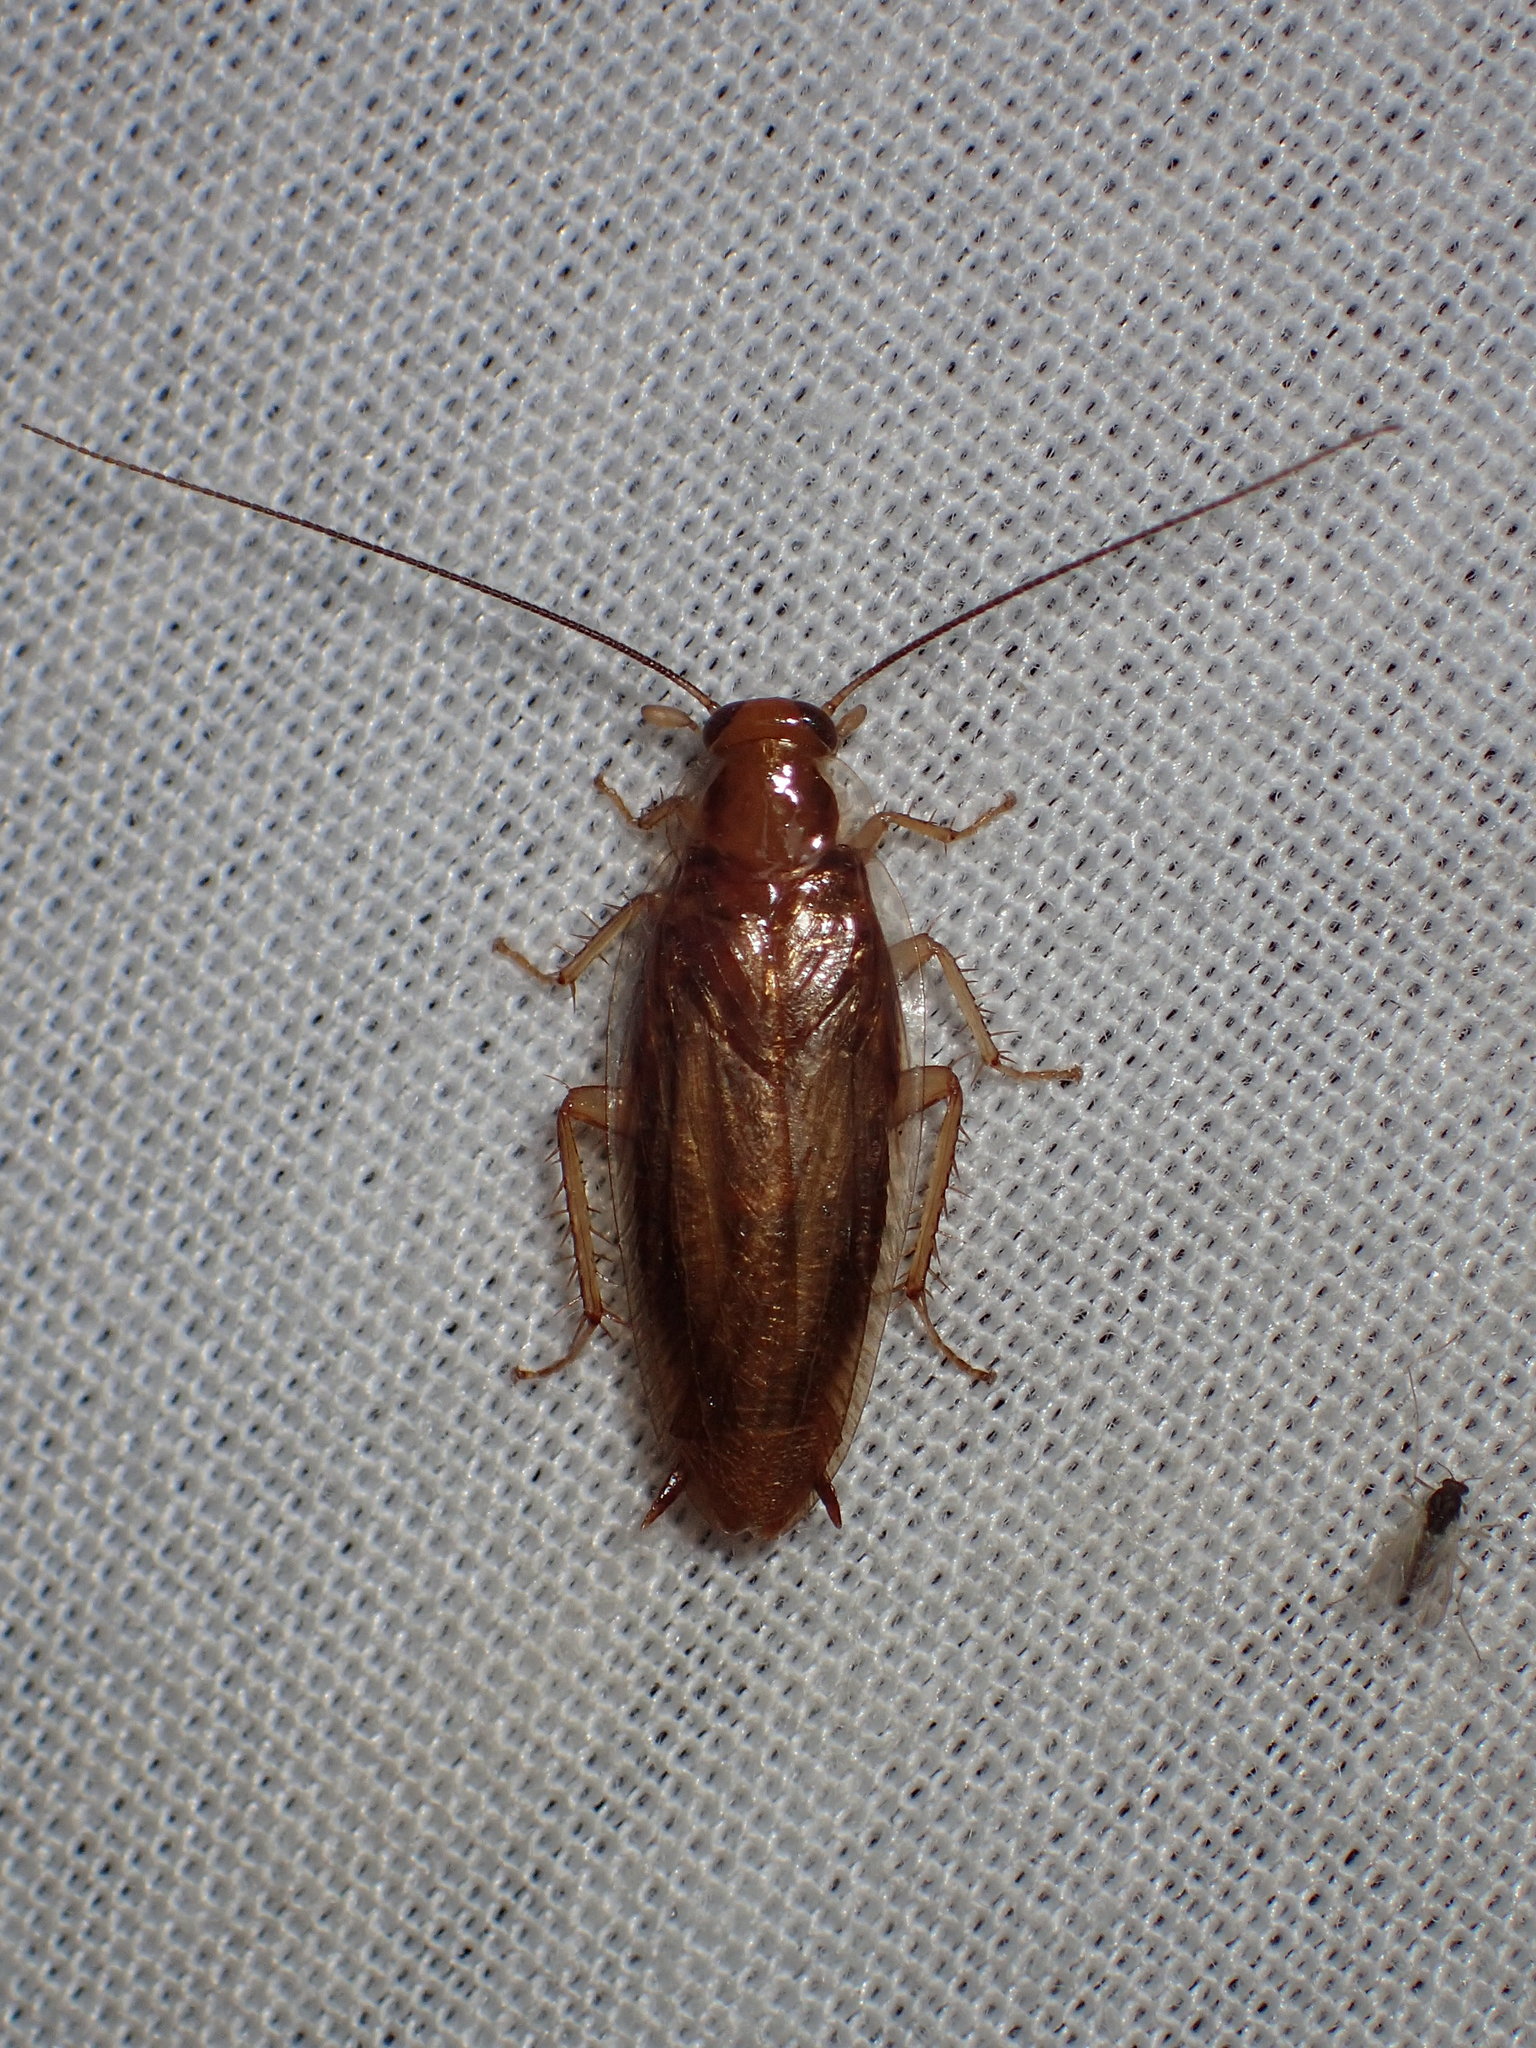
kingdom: Animalia
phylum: Arthropoda
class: Insecta
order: Blattodea
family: Ectobiidae
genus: Chorisoneura
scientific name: Chorisoneura texensis
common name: Small texas cockroach
